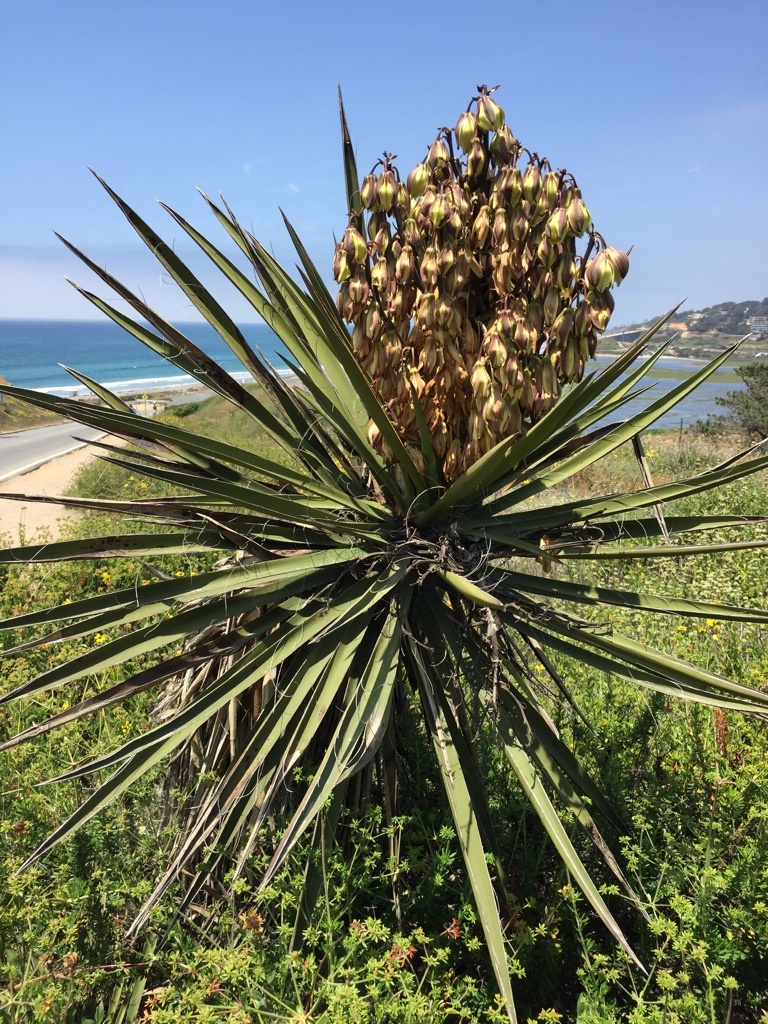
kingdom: Plantae
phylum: Tracheophyta
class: Liliopsida
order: Asparagales
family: Asparagaceae
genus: Yucca
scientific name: Yucca schidigera
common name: Mojave yucca
